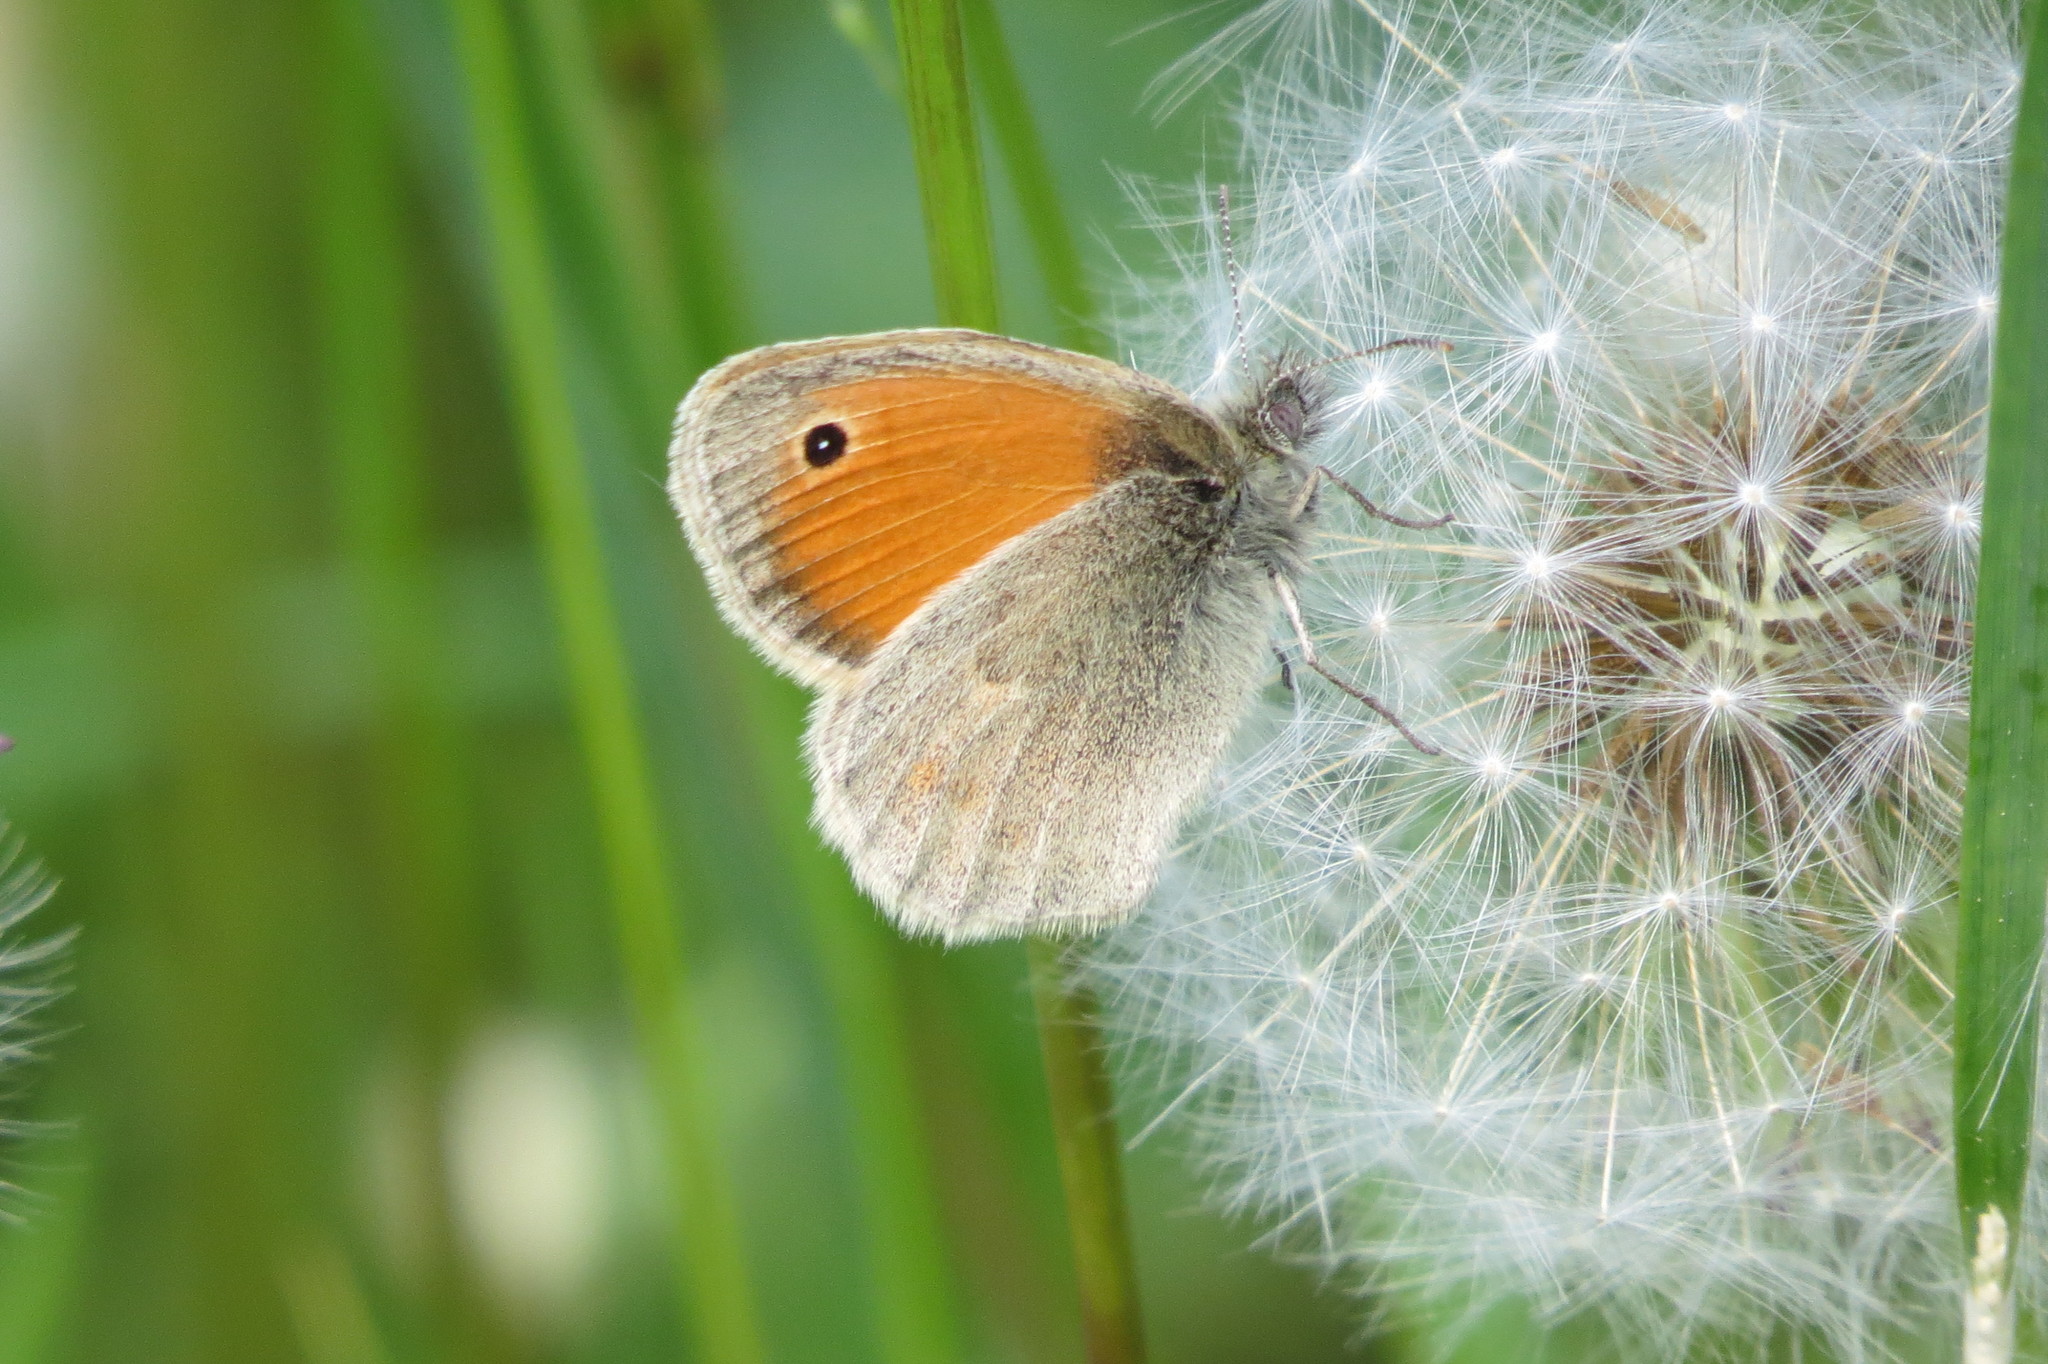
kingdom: Animalia
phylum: Arthropoda
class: Insecta
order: Lepidoptera
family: Nymphalidae
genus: Coenonympha
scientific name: Coenonympha pamphilus
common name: Small heath
